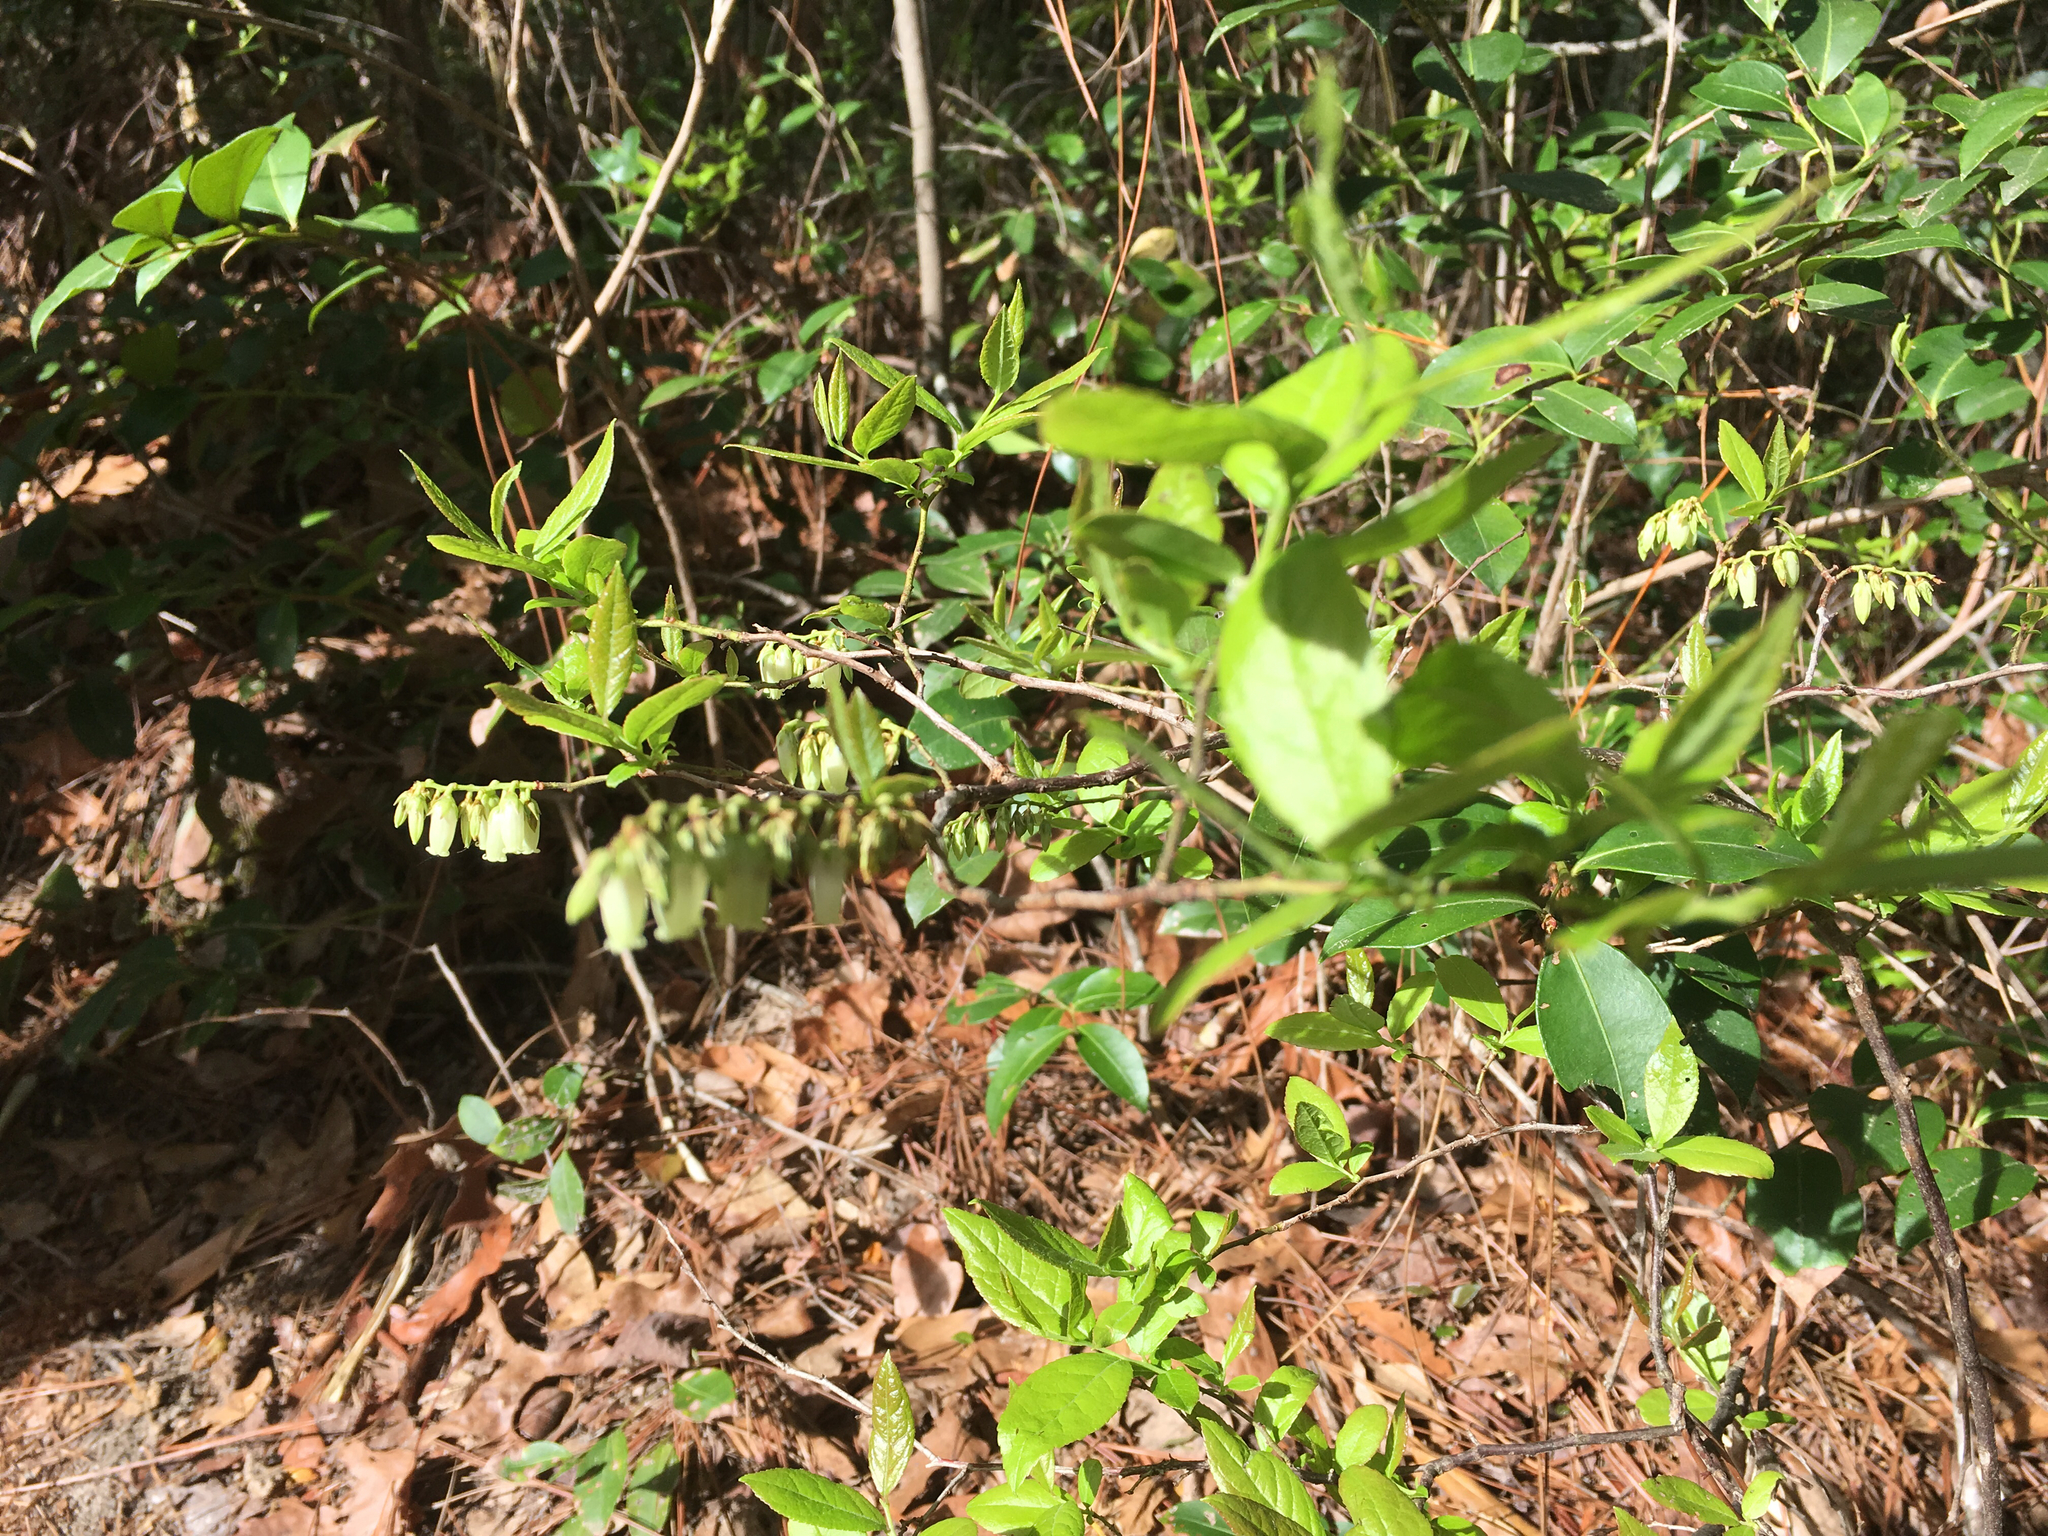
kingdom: Plantae
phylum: Tracheophyta
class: Magnoliopsida
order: Ericales
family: Ericaceae
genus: Eubotrys
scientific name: Eubotrys racemosa
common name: Fetterbush
